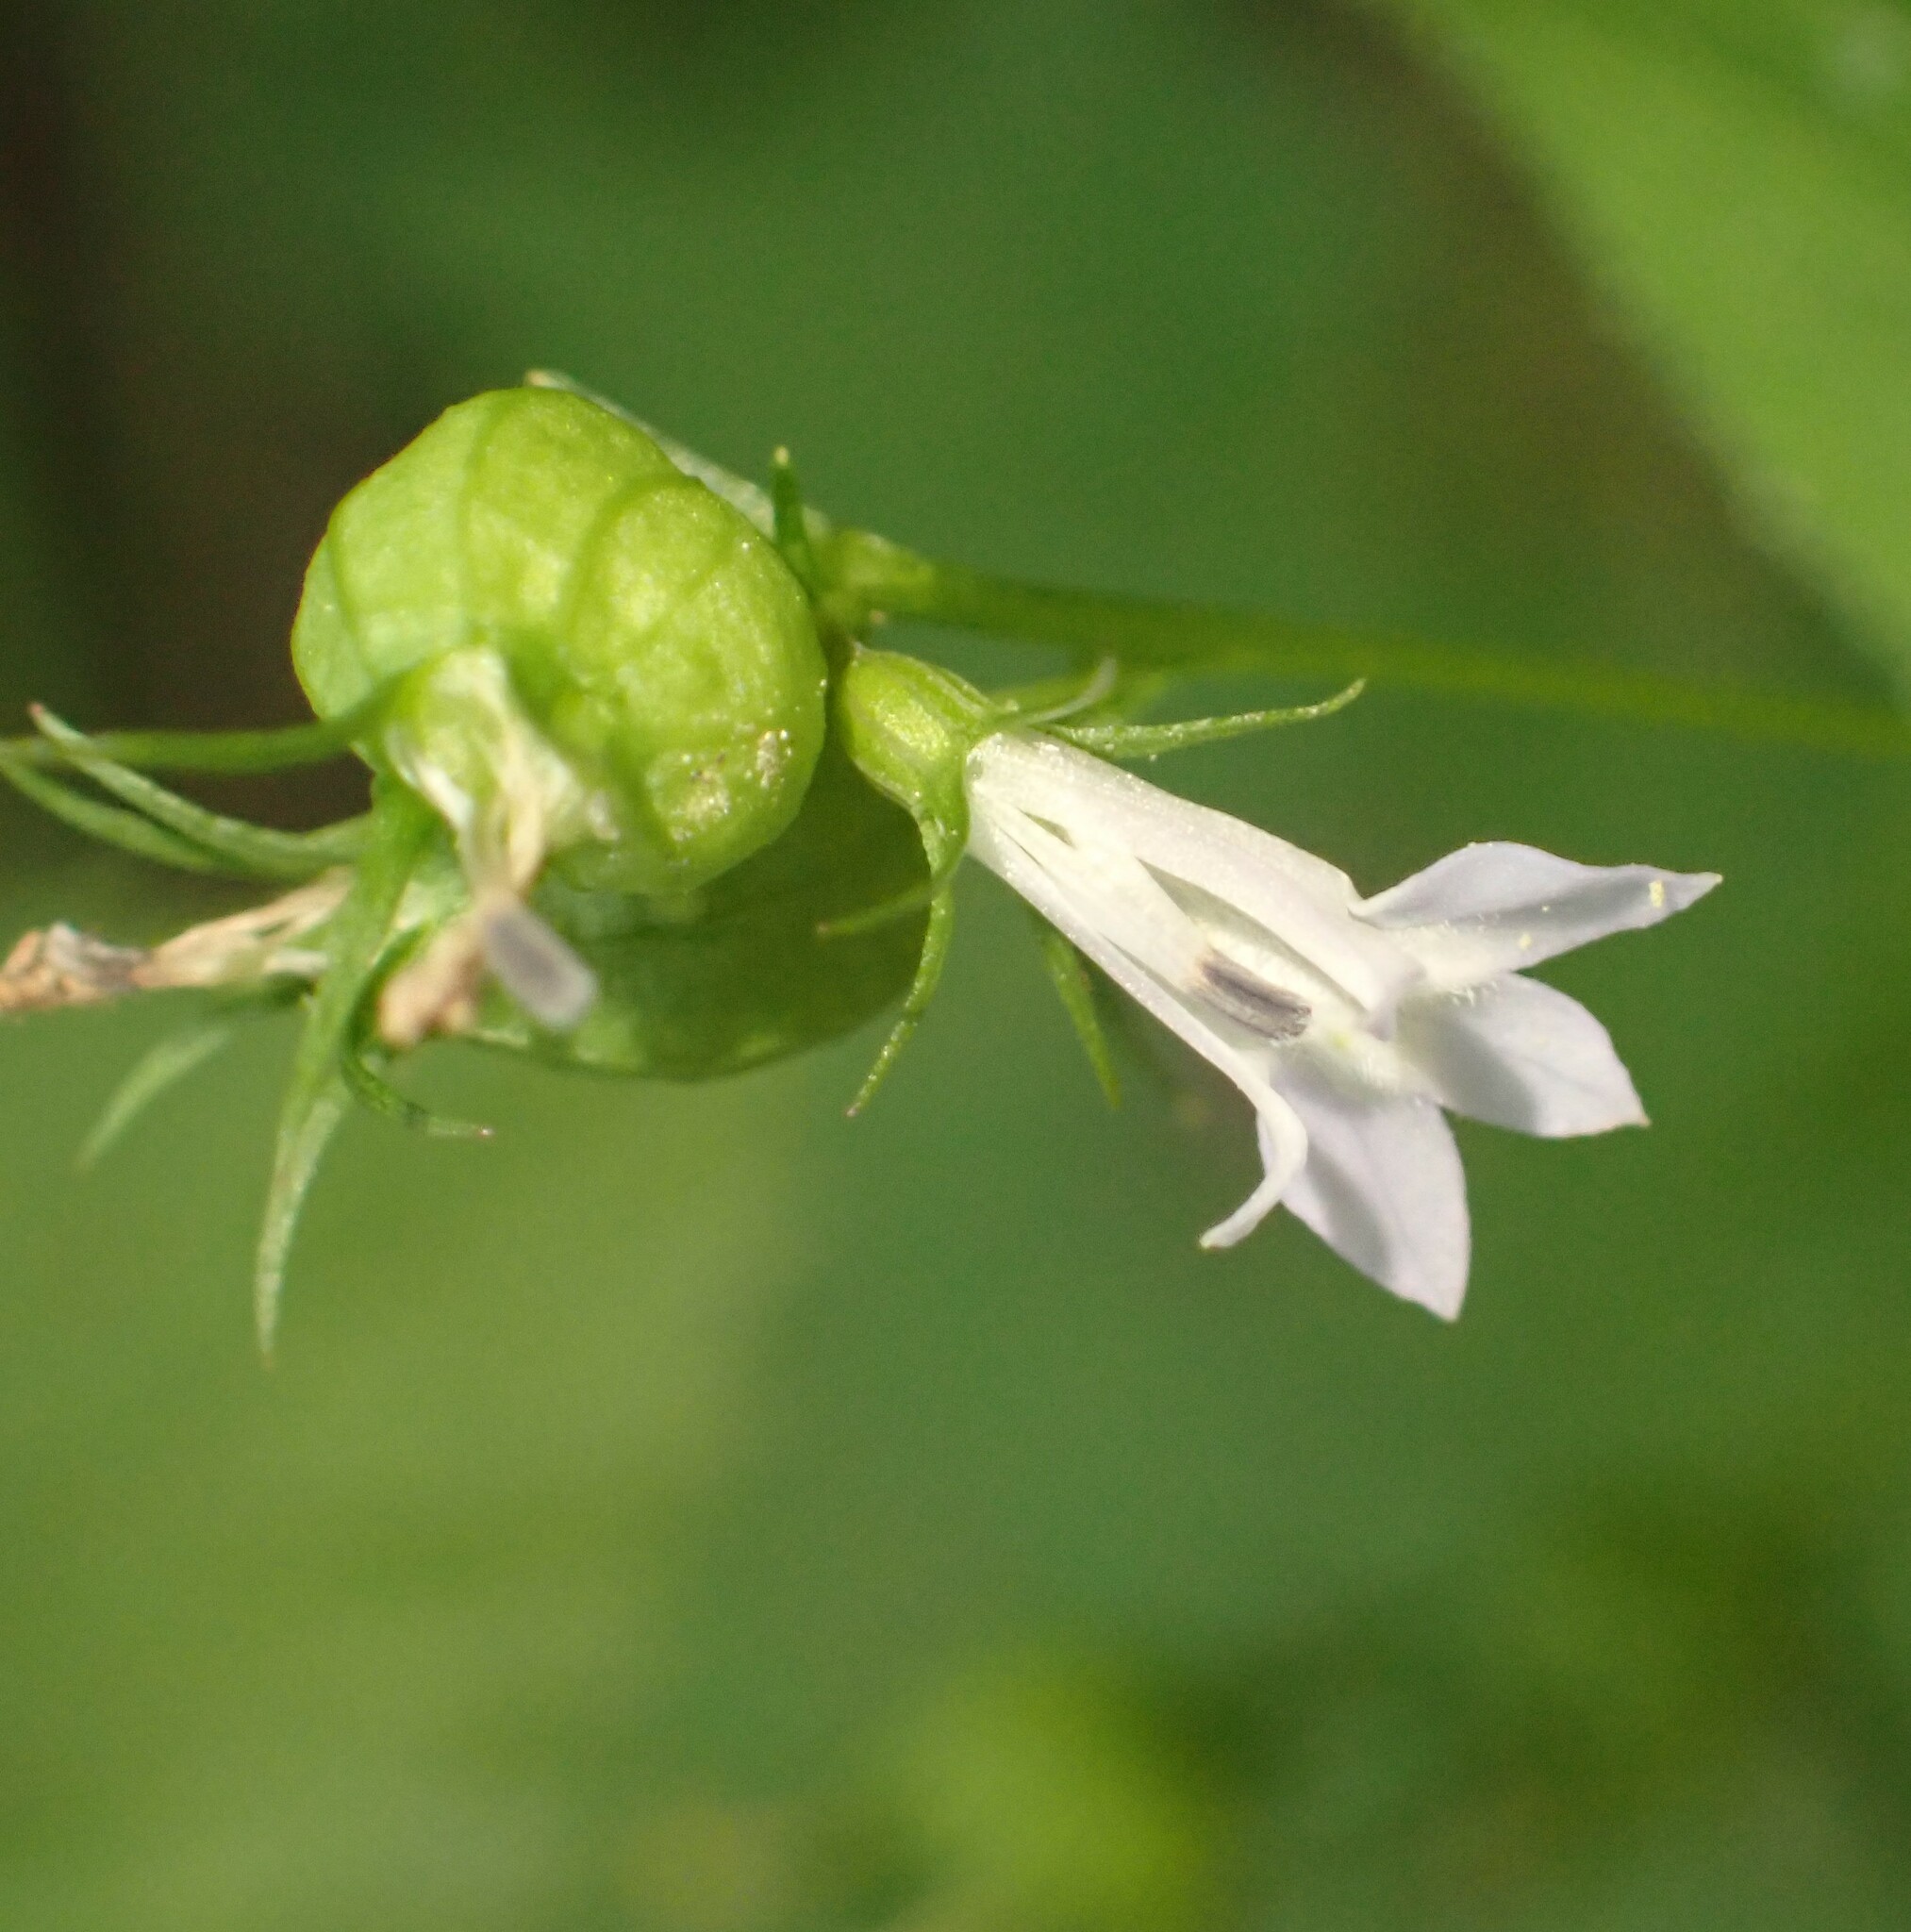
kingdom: Plantae
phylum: Tracheophyta
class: Magnoliopsida
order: Asterales
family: Campanulaceae
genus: Lobelia
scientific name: Lobelia inflata
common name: Indian tobacco
